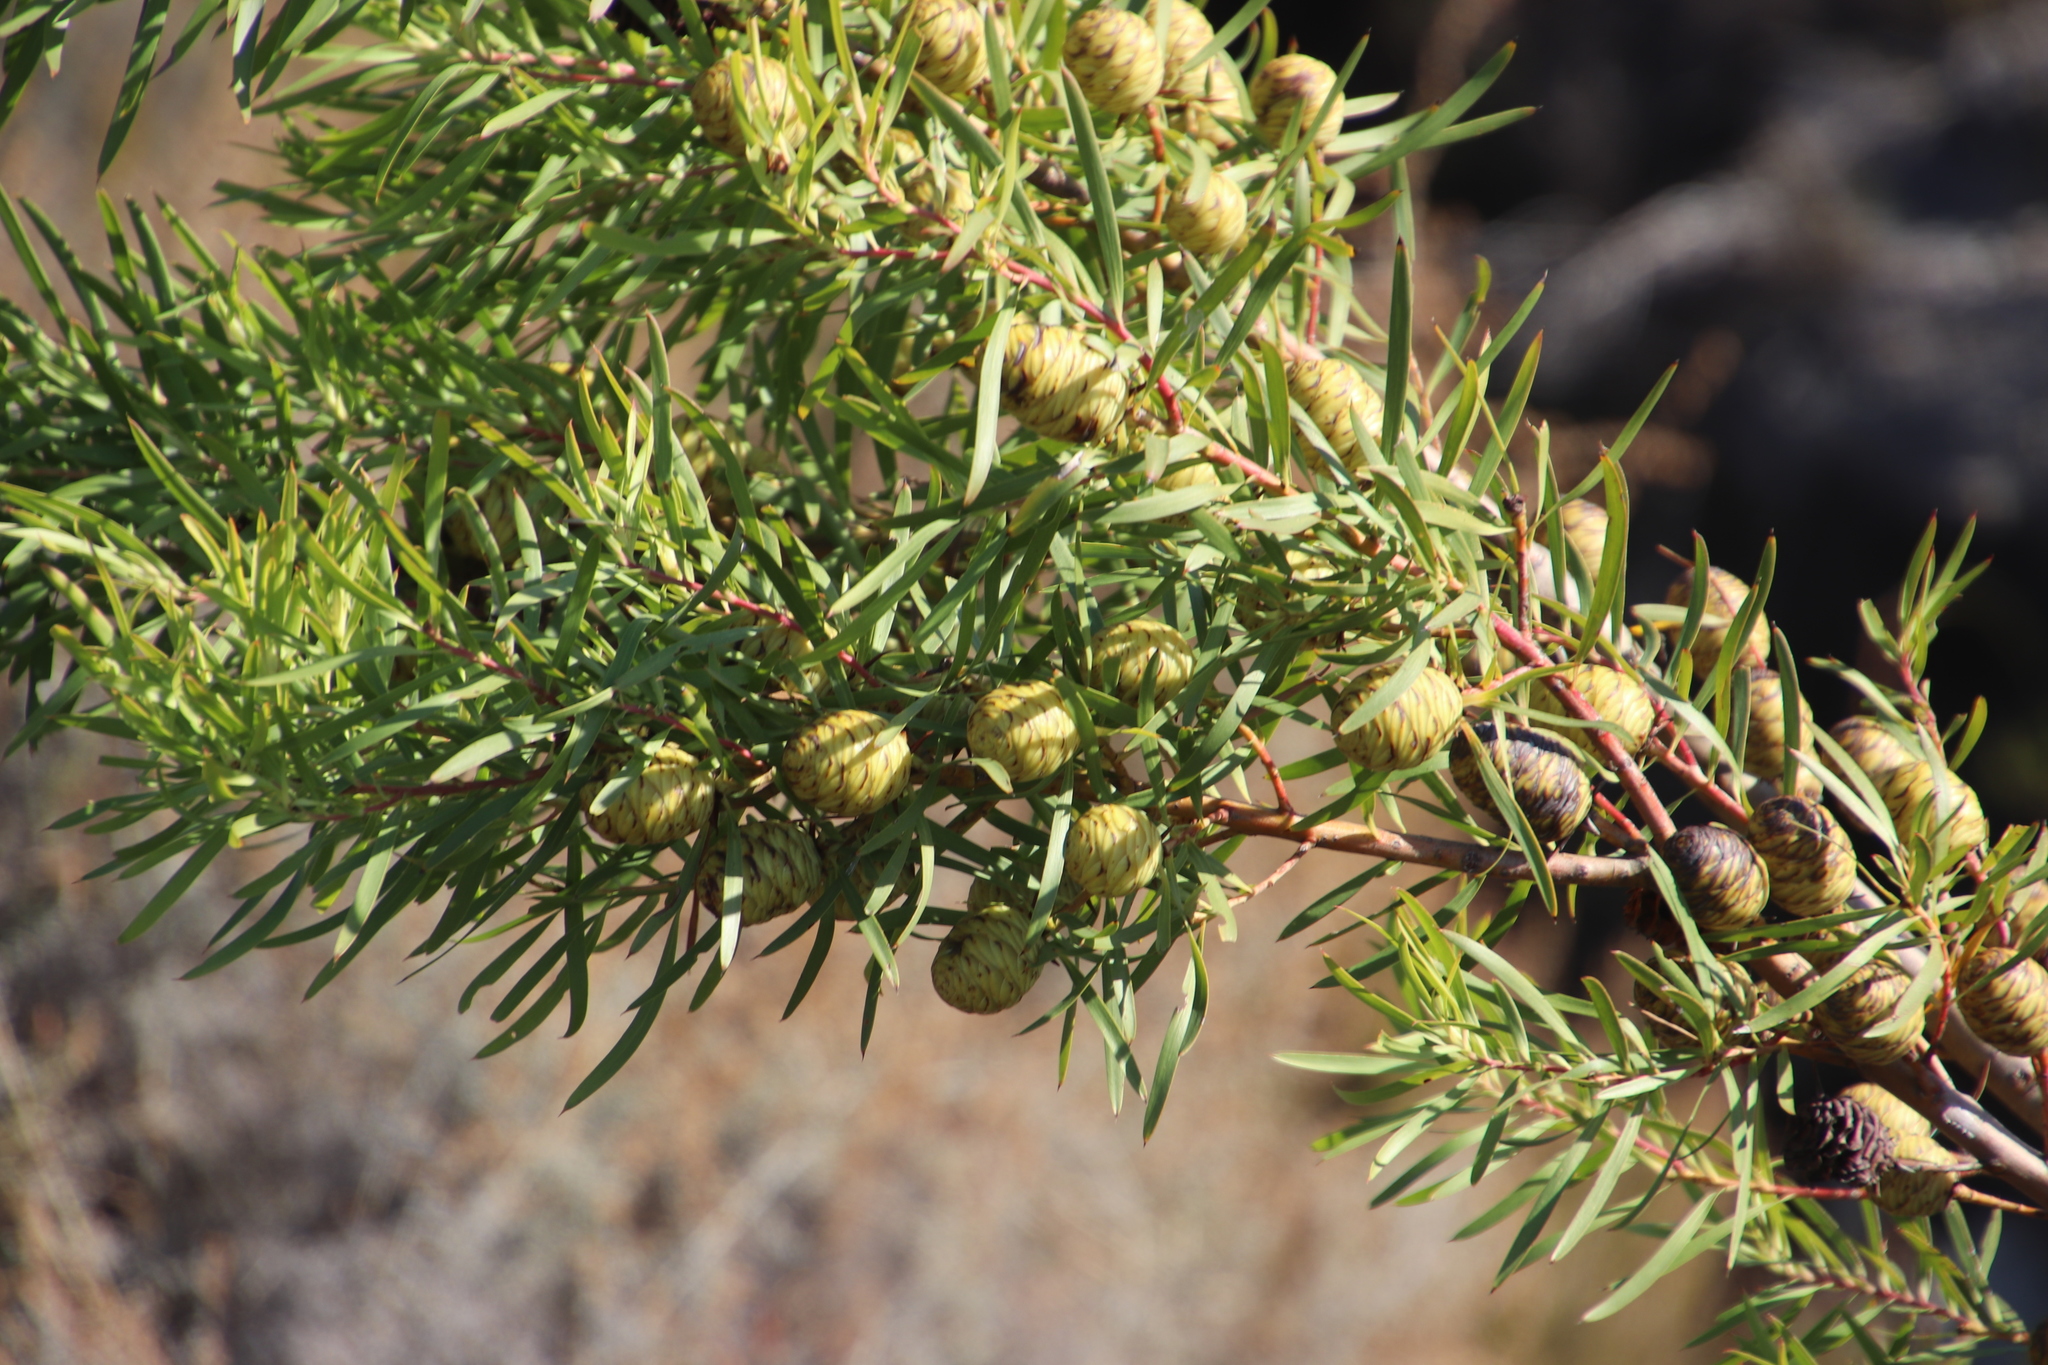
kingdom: Plantae
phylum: Tracheophyta
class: Magnoliopsida
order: Proteales
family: Proteaceae
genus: Leucadendron
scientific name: Leucadendron salicifolium
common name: Common stream conebush
